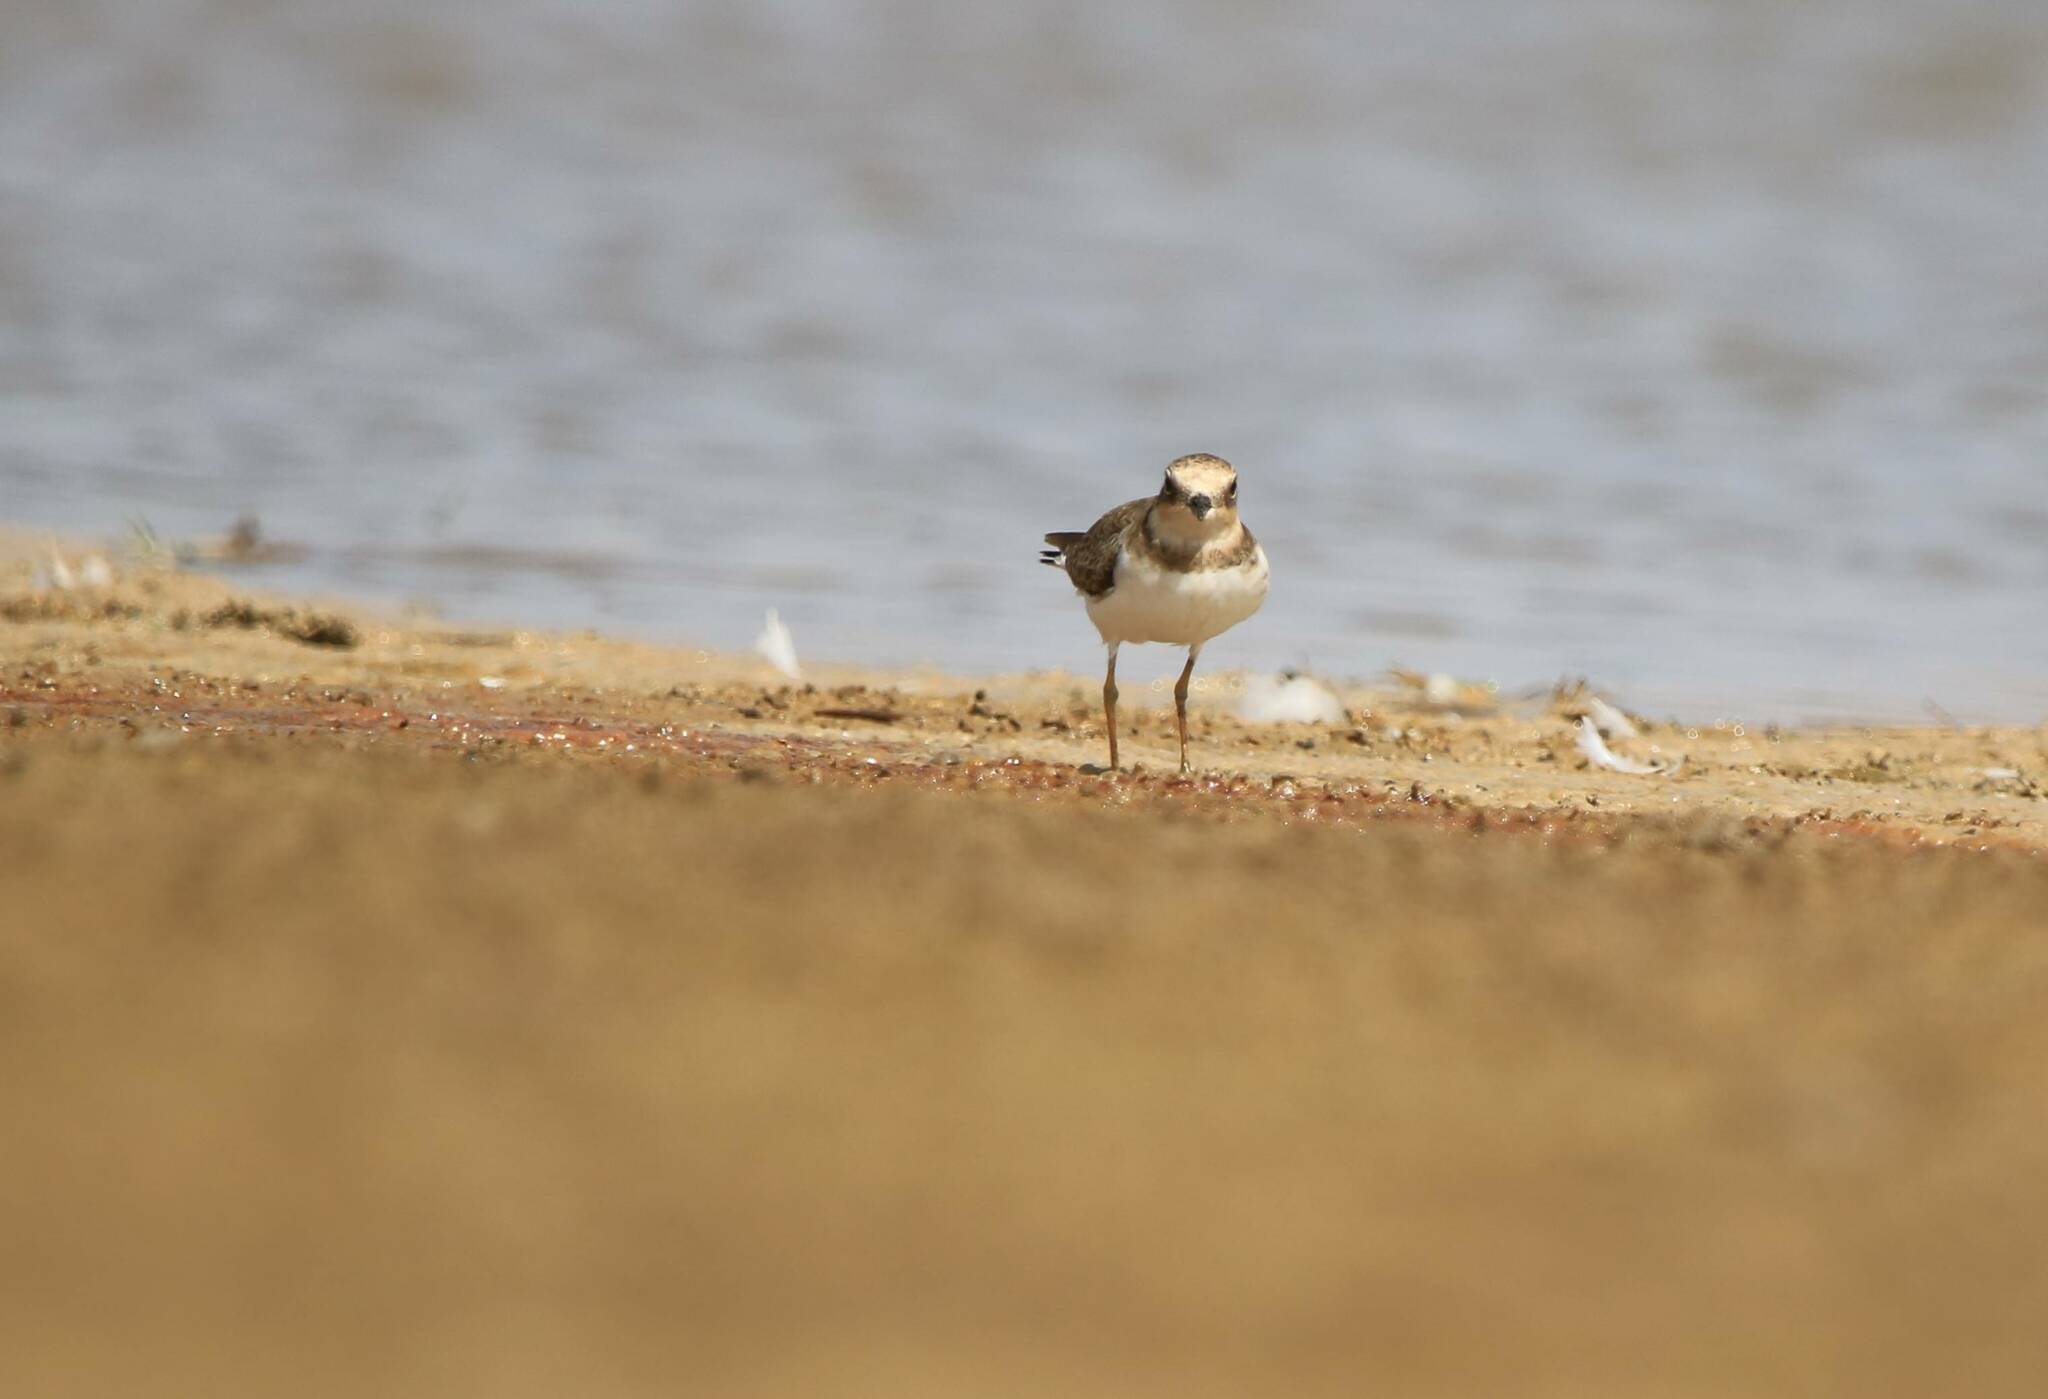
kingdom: Animalia
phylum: Chordata
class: Aves
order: Charadriiformes
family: Charadriidae
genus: Charadrius
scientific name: Charadrius dubius
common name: Little ringed plover
